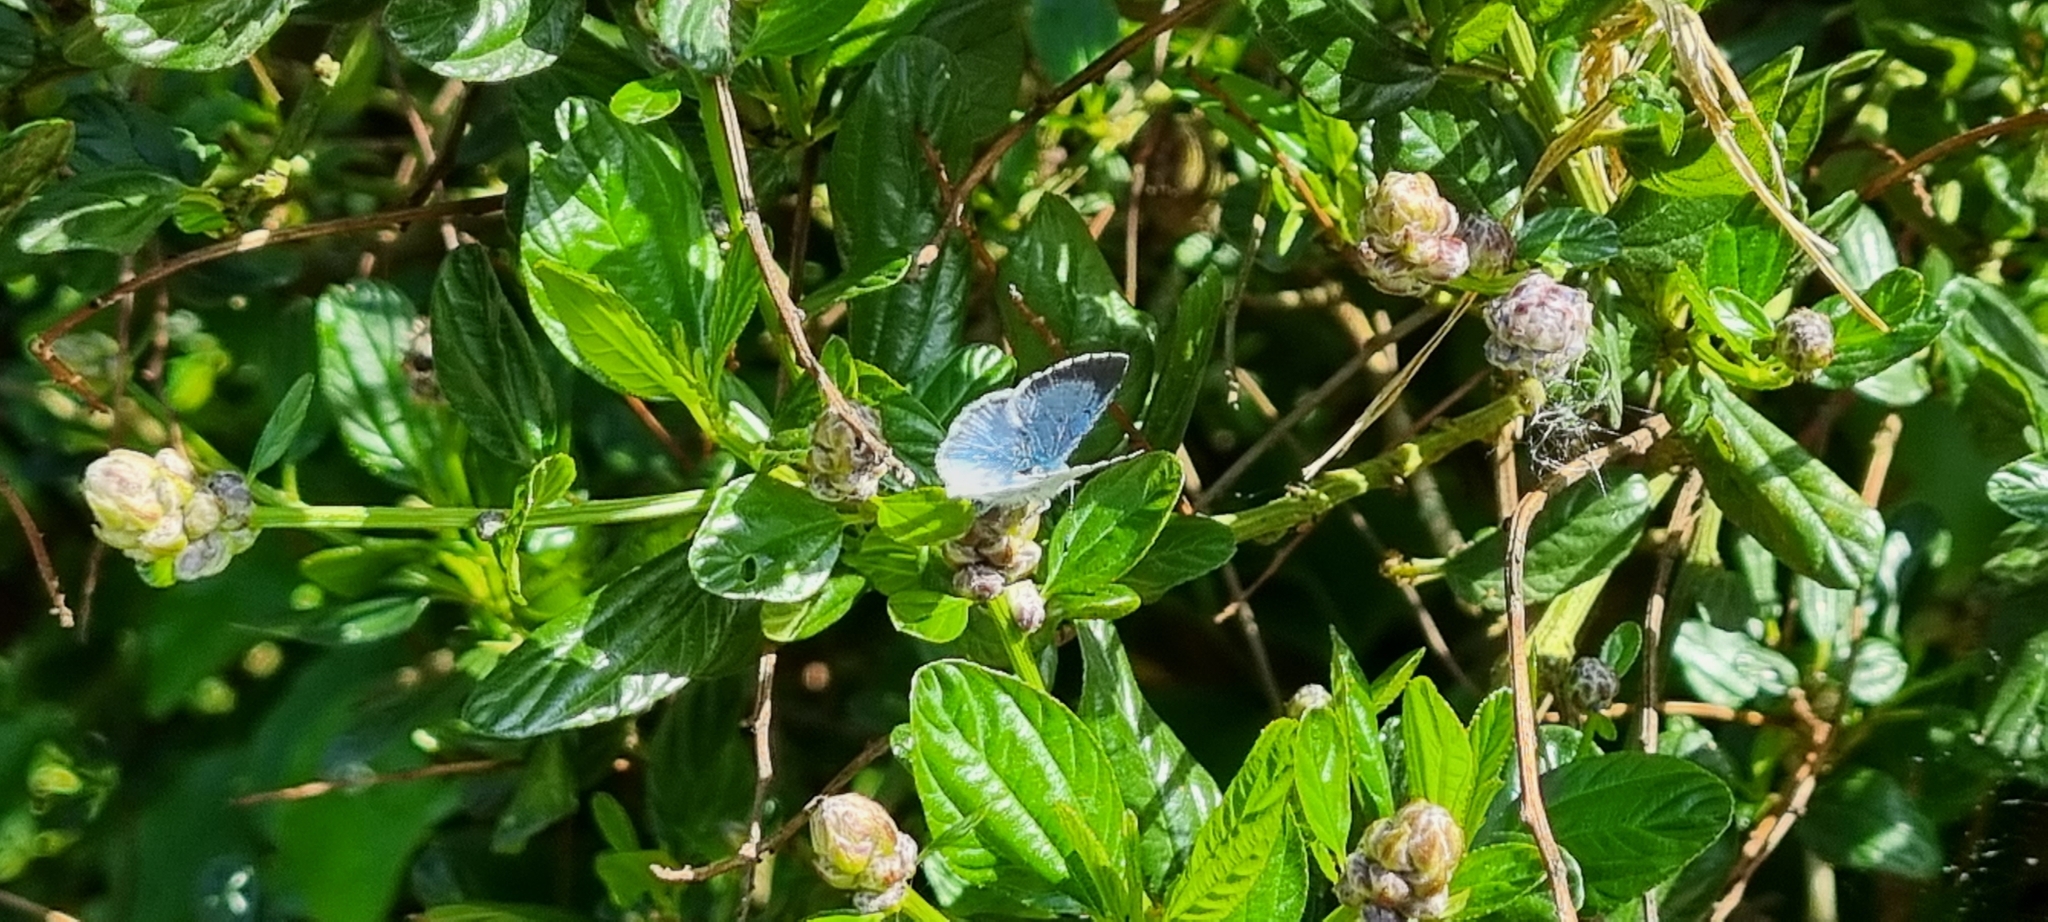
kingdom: Animalia
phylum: Arthropoda
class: Insecta
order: Lepidoptera
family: Lycaenidae
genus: Celastrina
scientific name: Celastrina argiolus
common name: Holly blue
